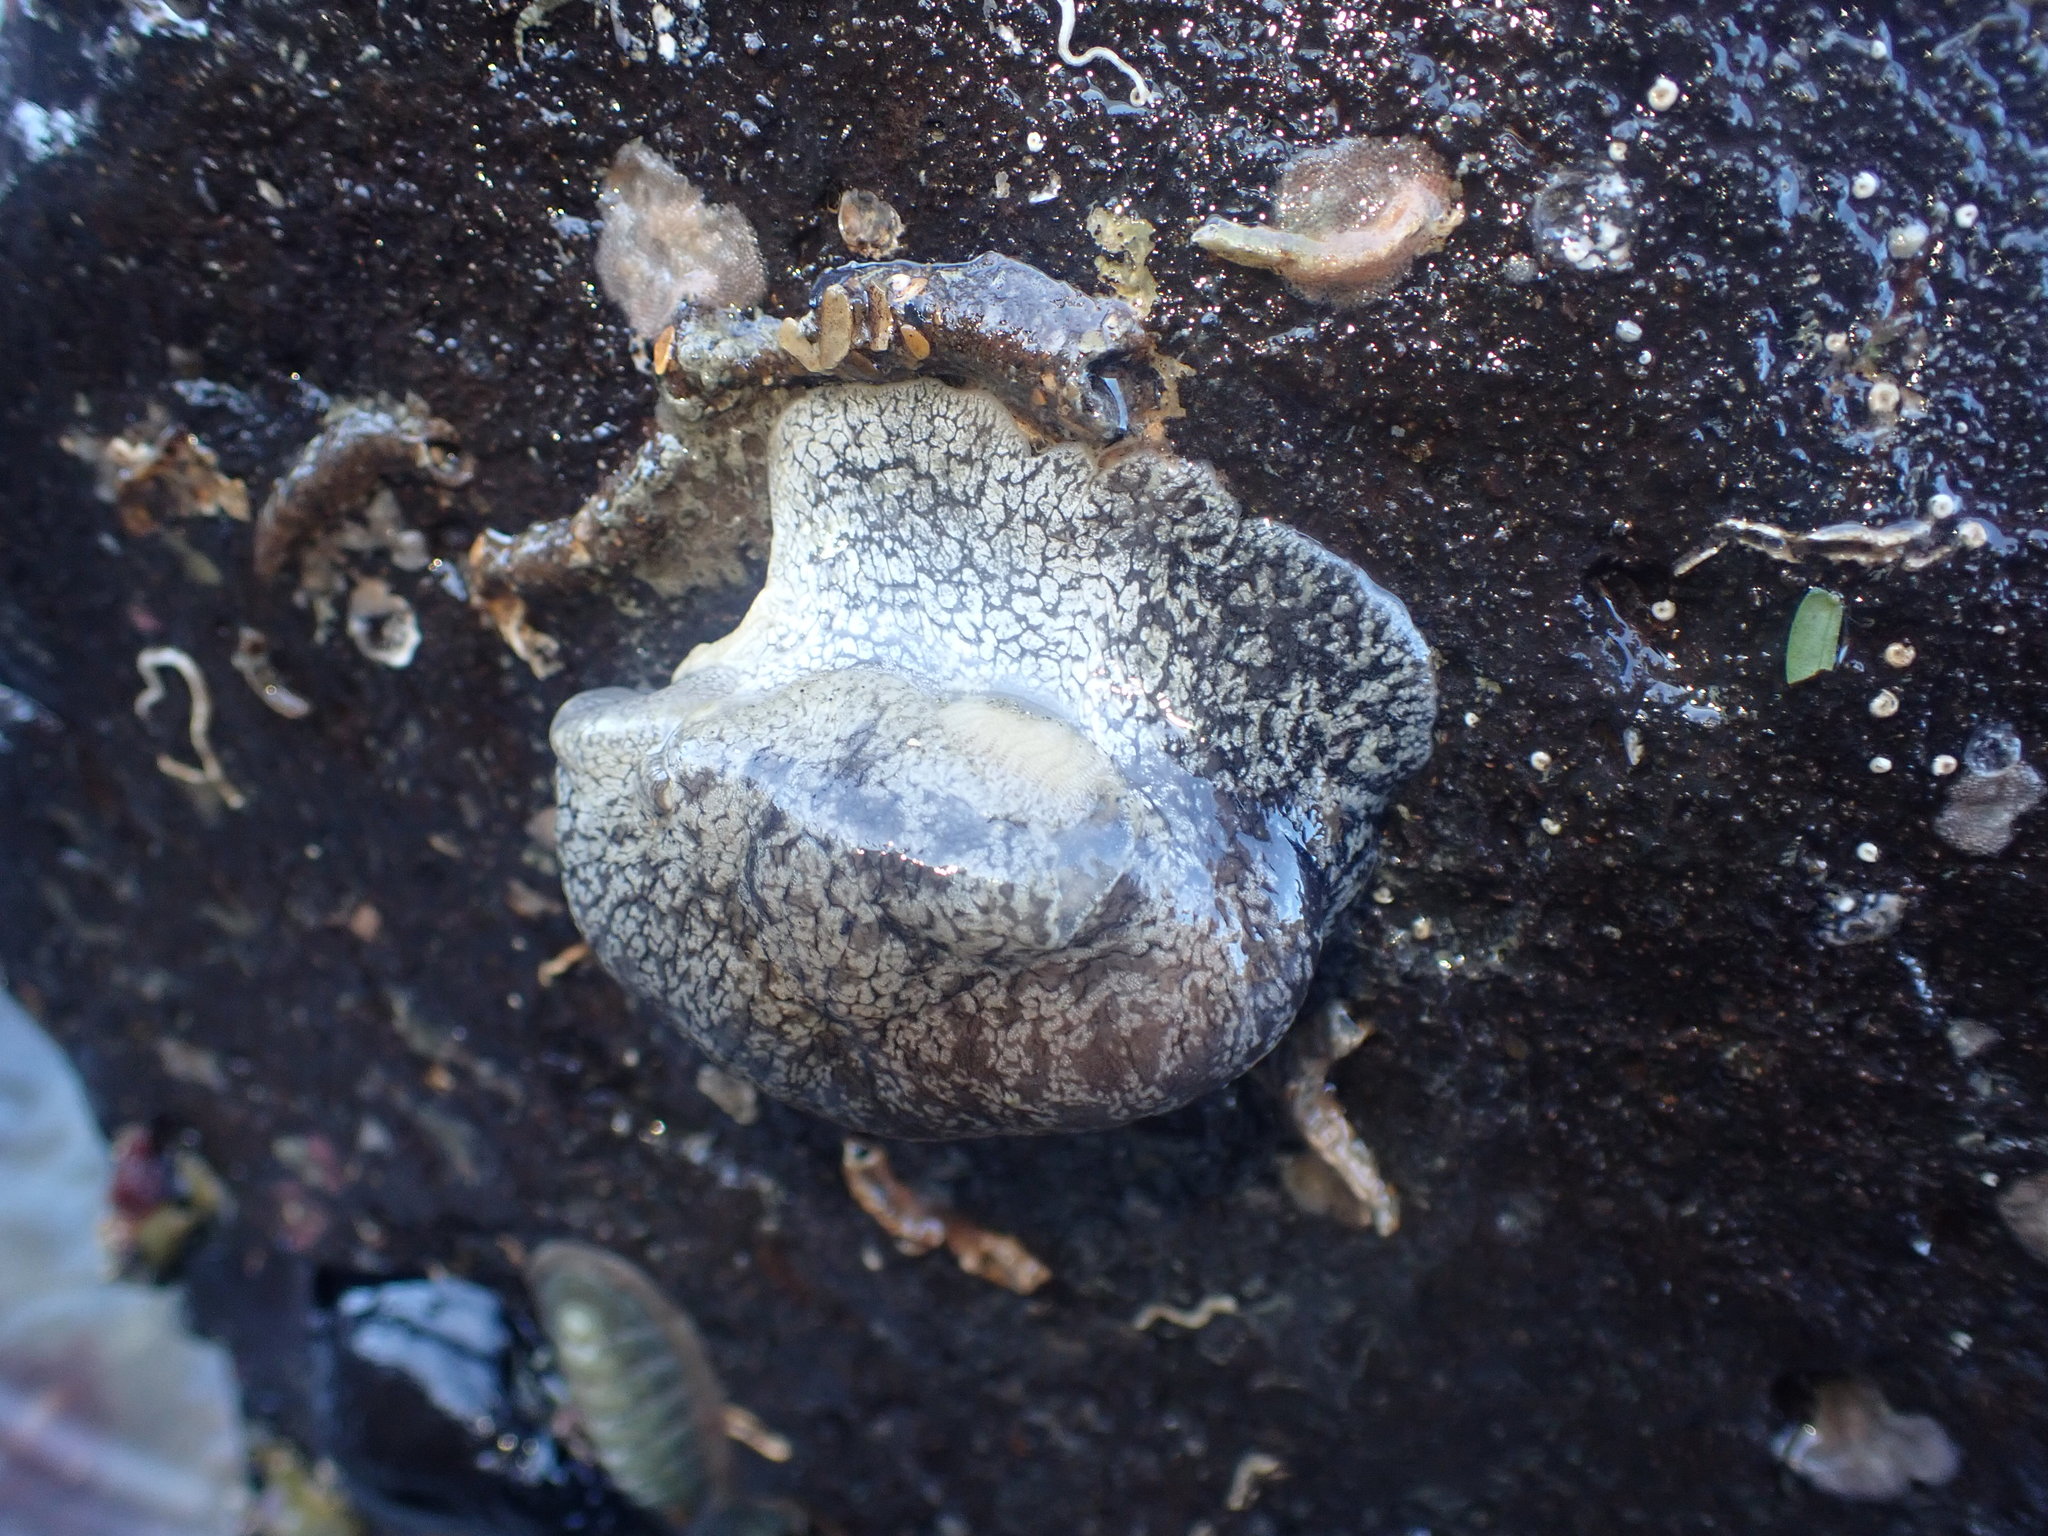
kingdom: Animalia
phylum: Mollusca
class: Gastropoda
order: Pleurobranchida
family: Pleurobranchaeidae
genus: Pleurobranchaea
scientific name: Pleurobranchaea maculata
